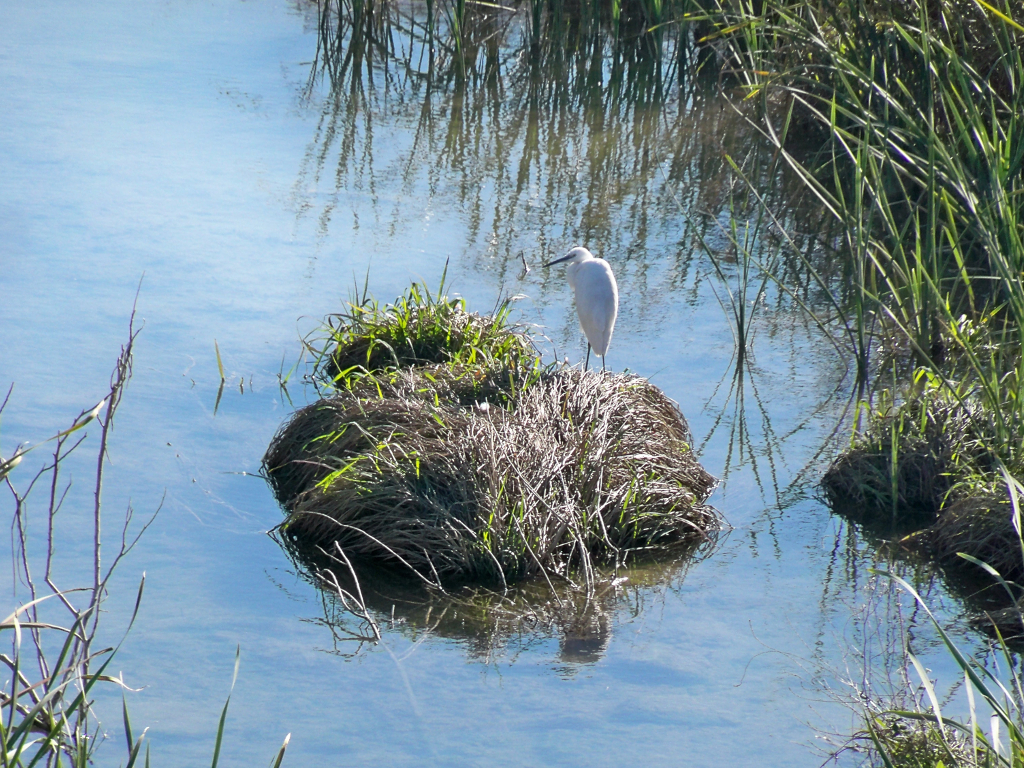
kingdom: Animalia
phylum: Chordata
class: Aves
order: Pelecaniformes
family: Ardeidae
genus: Egretta
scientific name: Egretta garzetta
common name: Little egret
